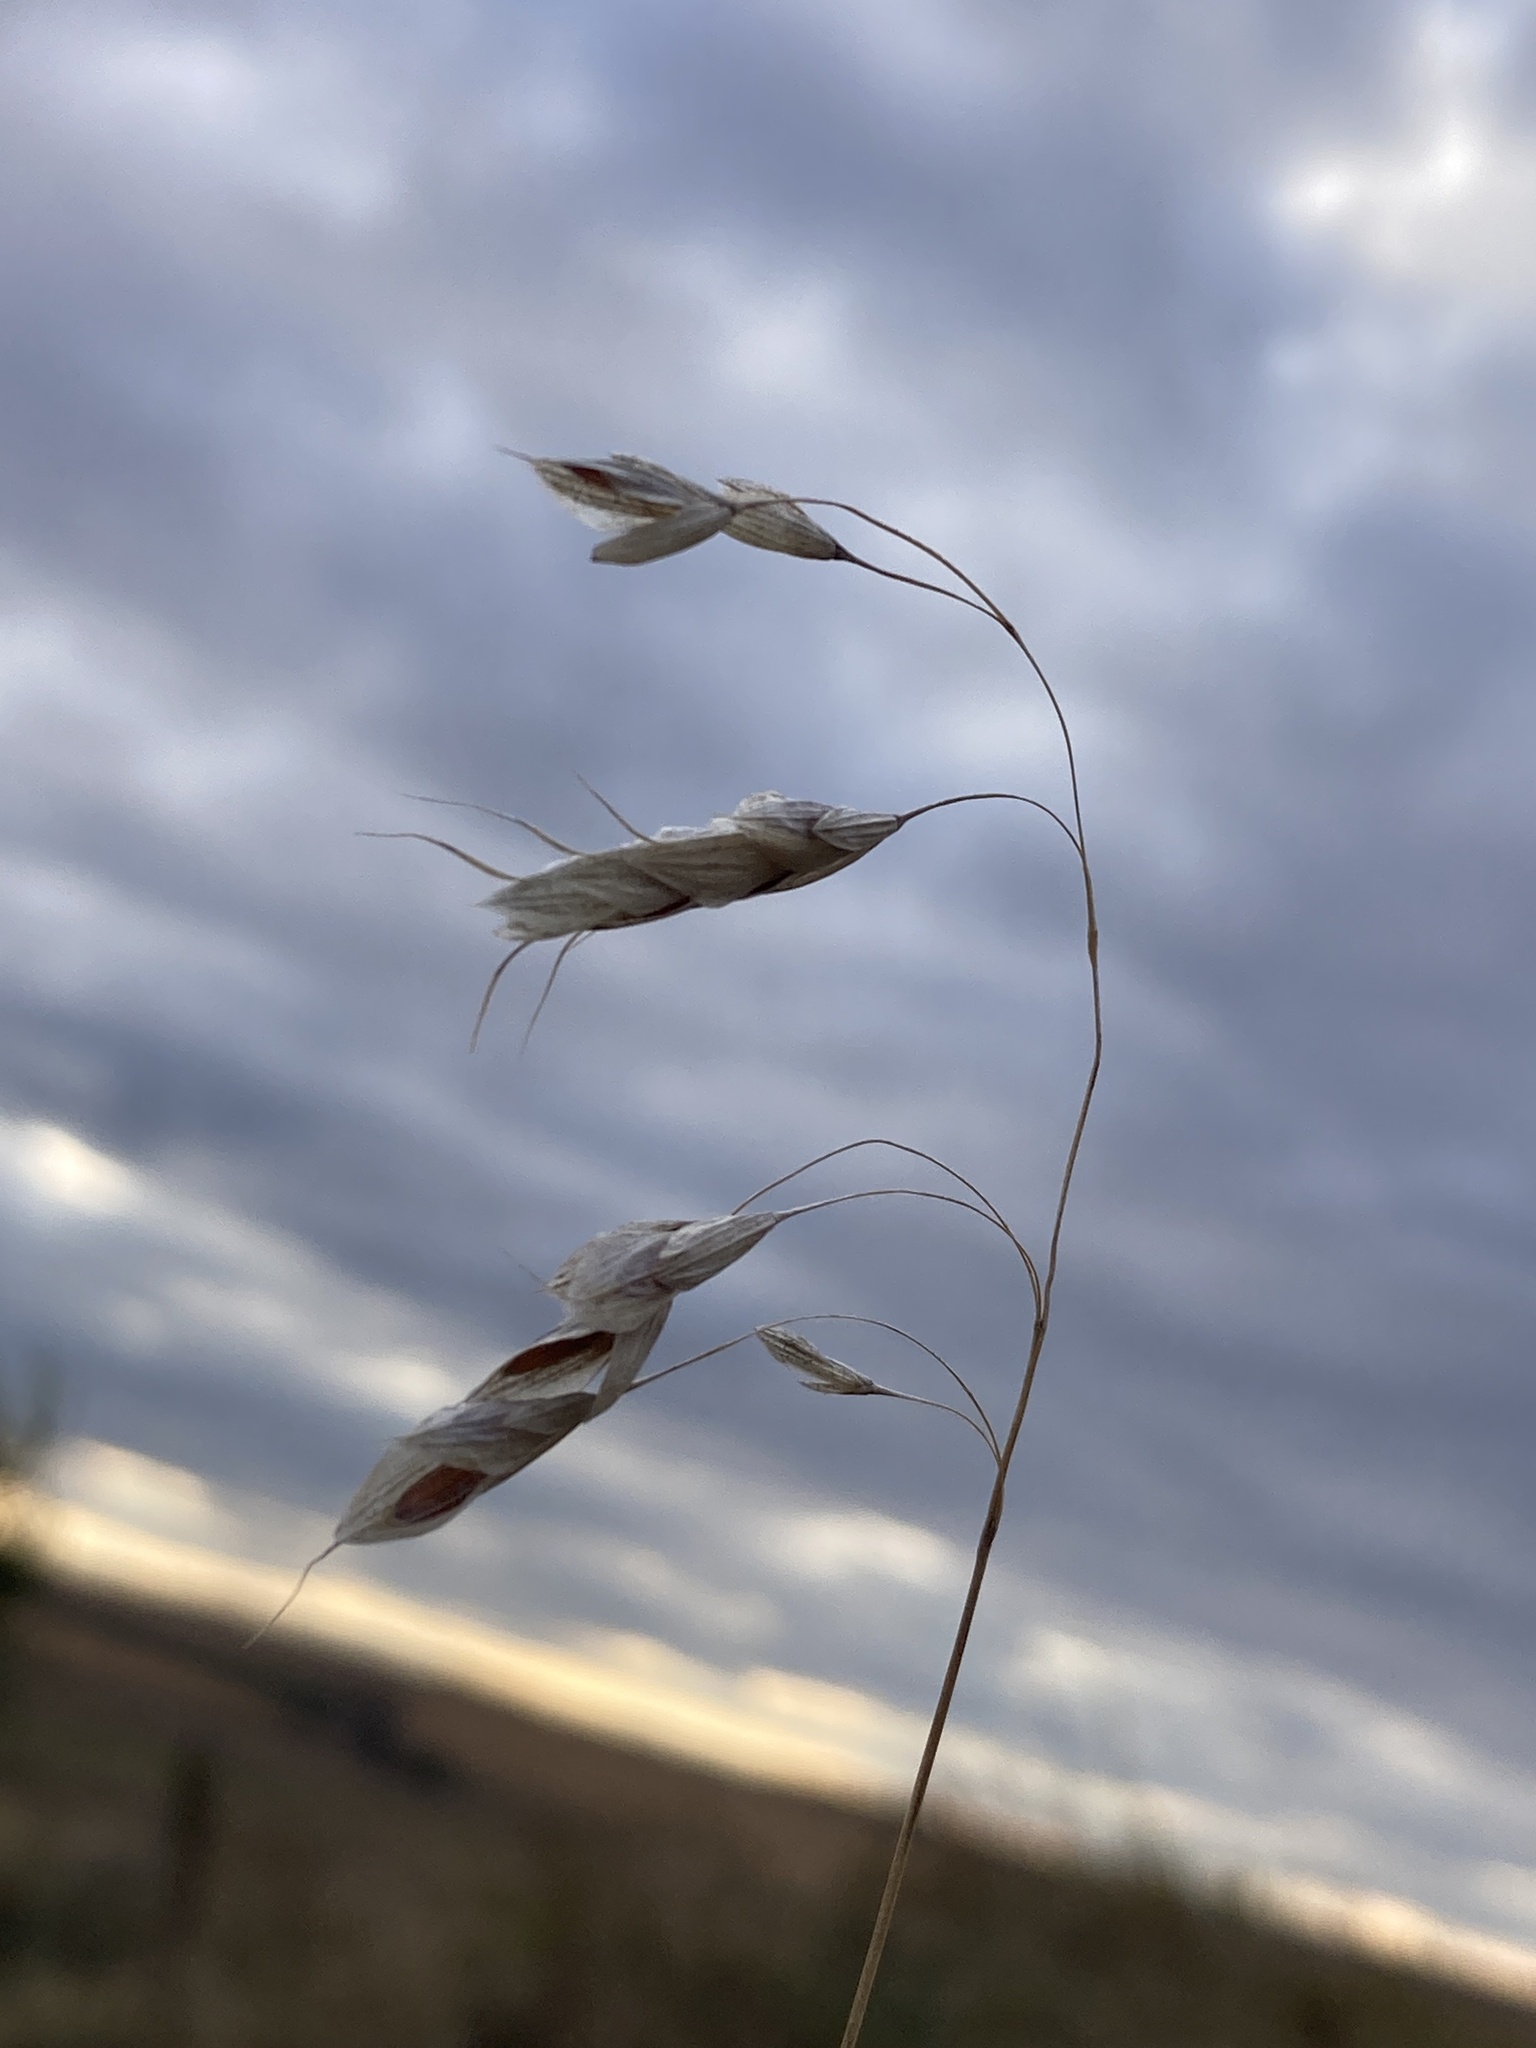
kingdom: Plantae
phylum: Tracheophyta
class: Liliopsida
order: Poales
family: Poaceae
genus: Bromus
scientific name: Bromus squarrosus
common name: Corn brome
